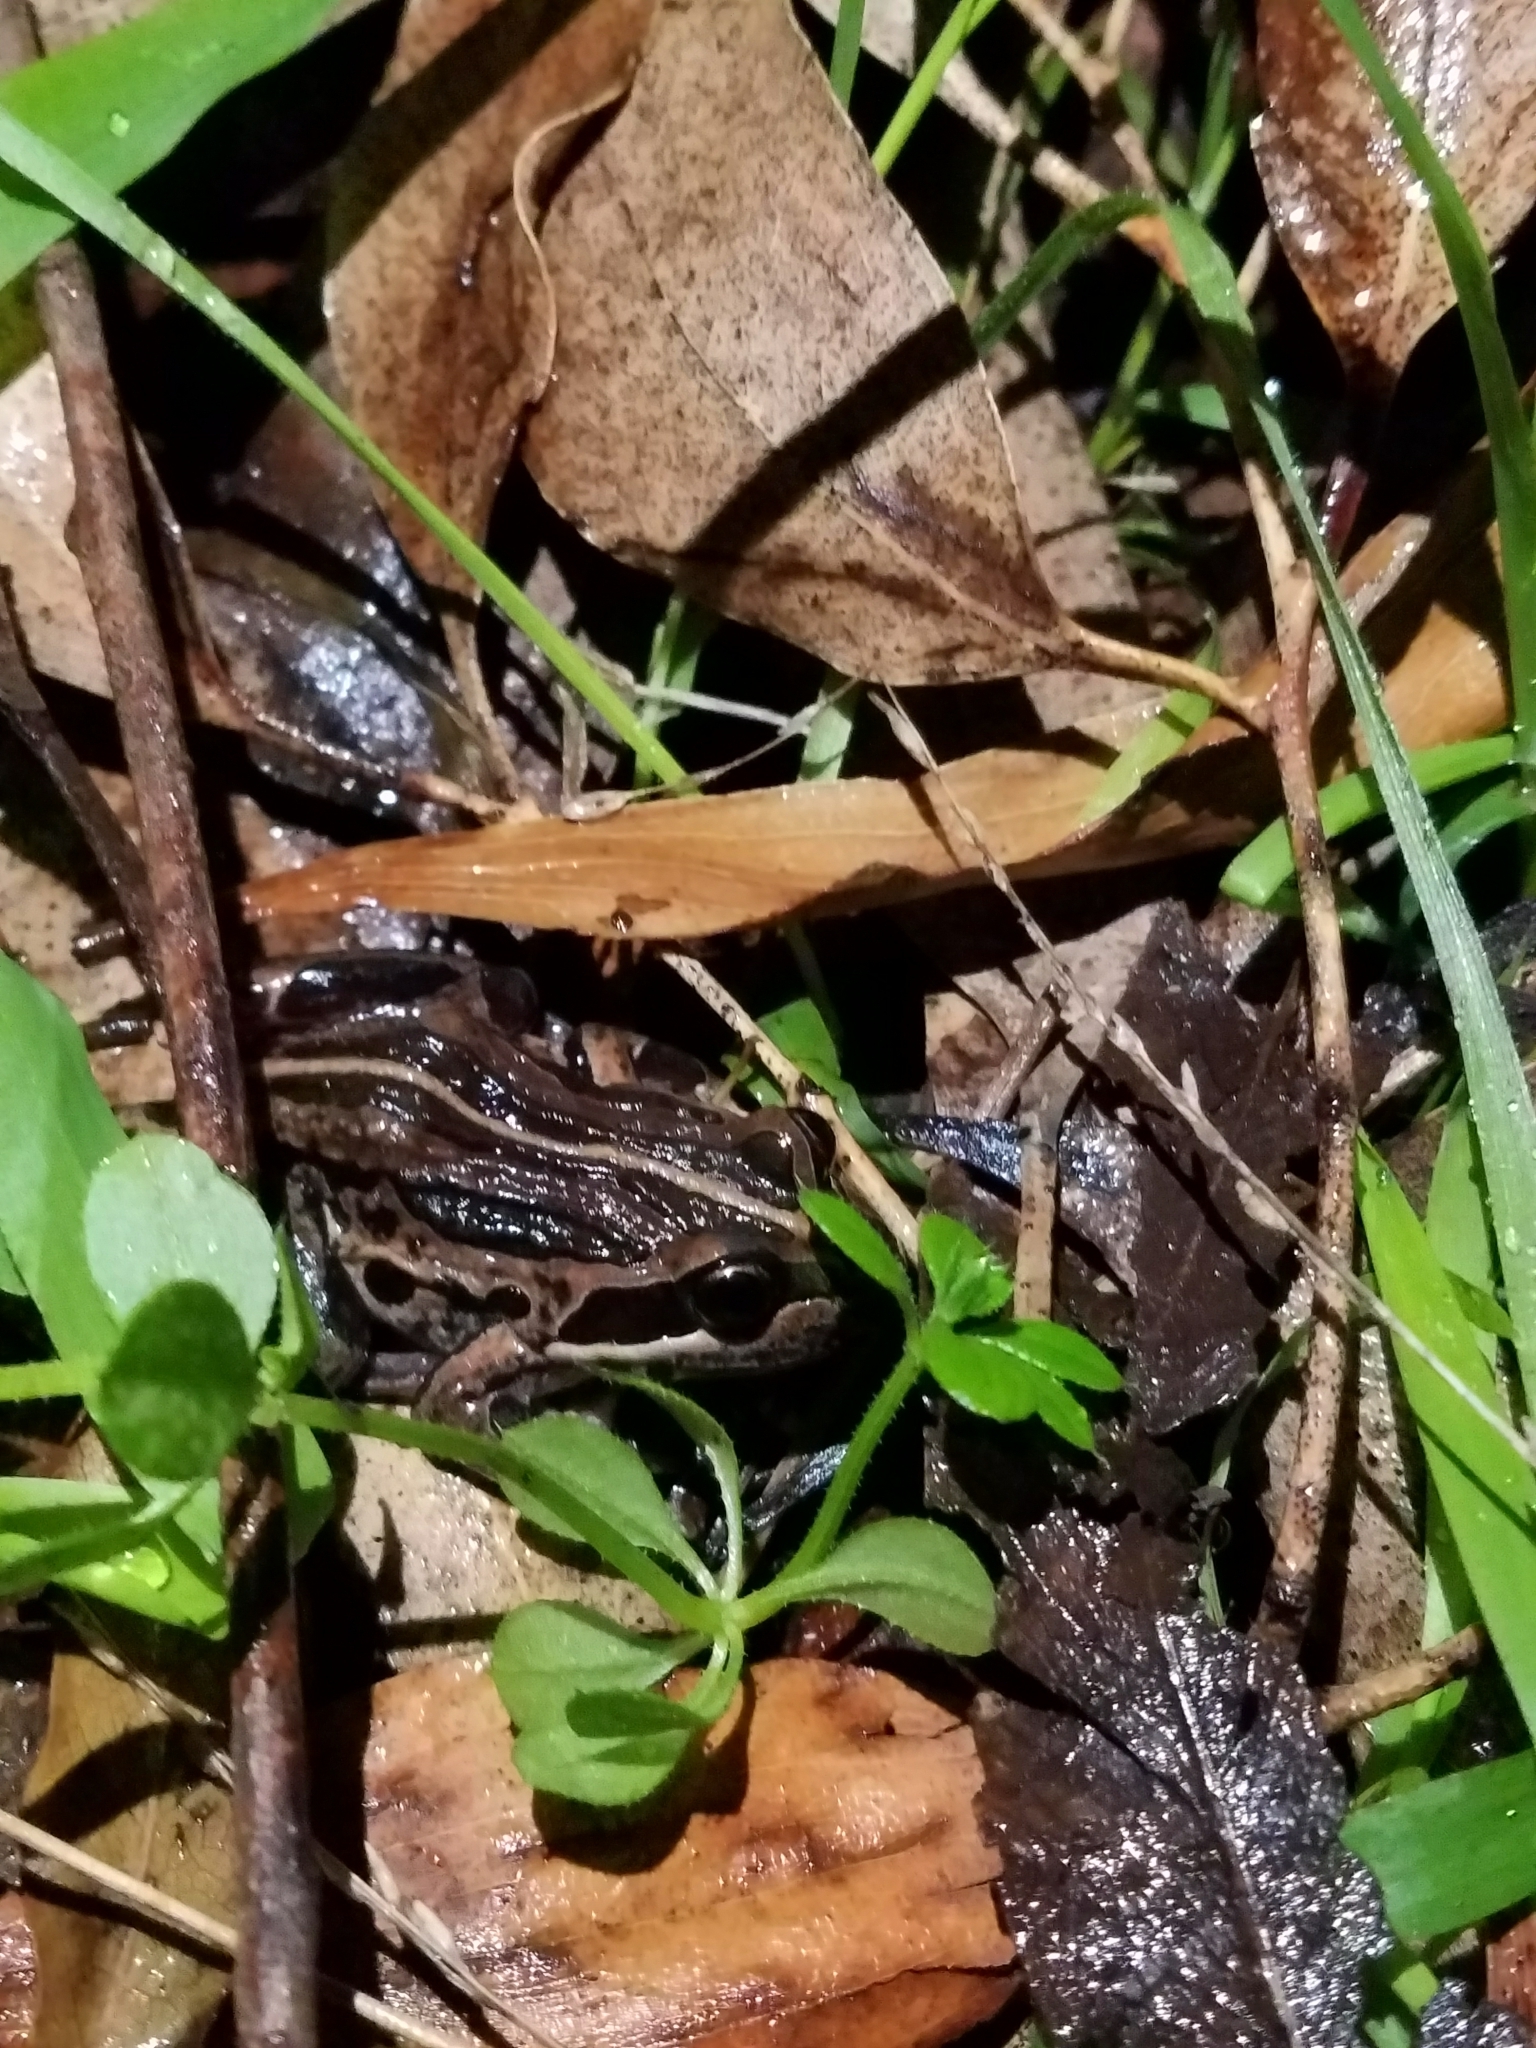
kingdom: Animalia
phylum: Chordata
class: Amphibia
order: Anura
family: Limnodynastidae
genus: Limnodynastes
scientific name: Limnodynastes peronii
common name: Brown frog
